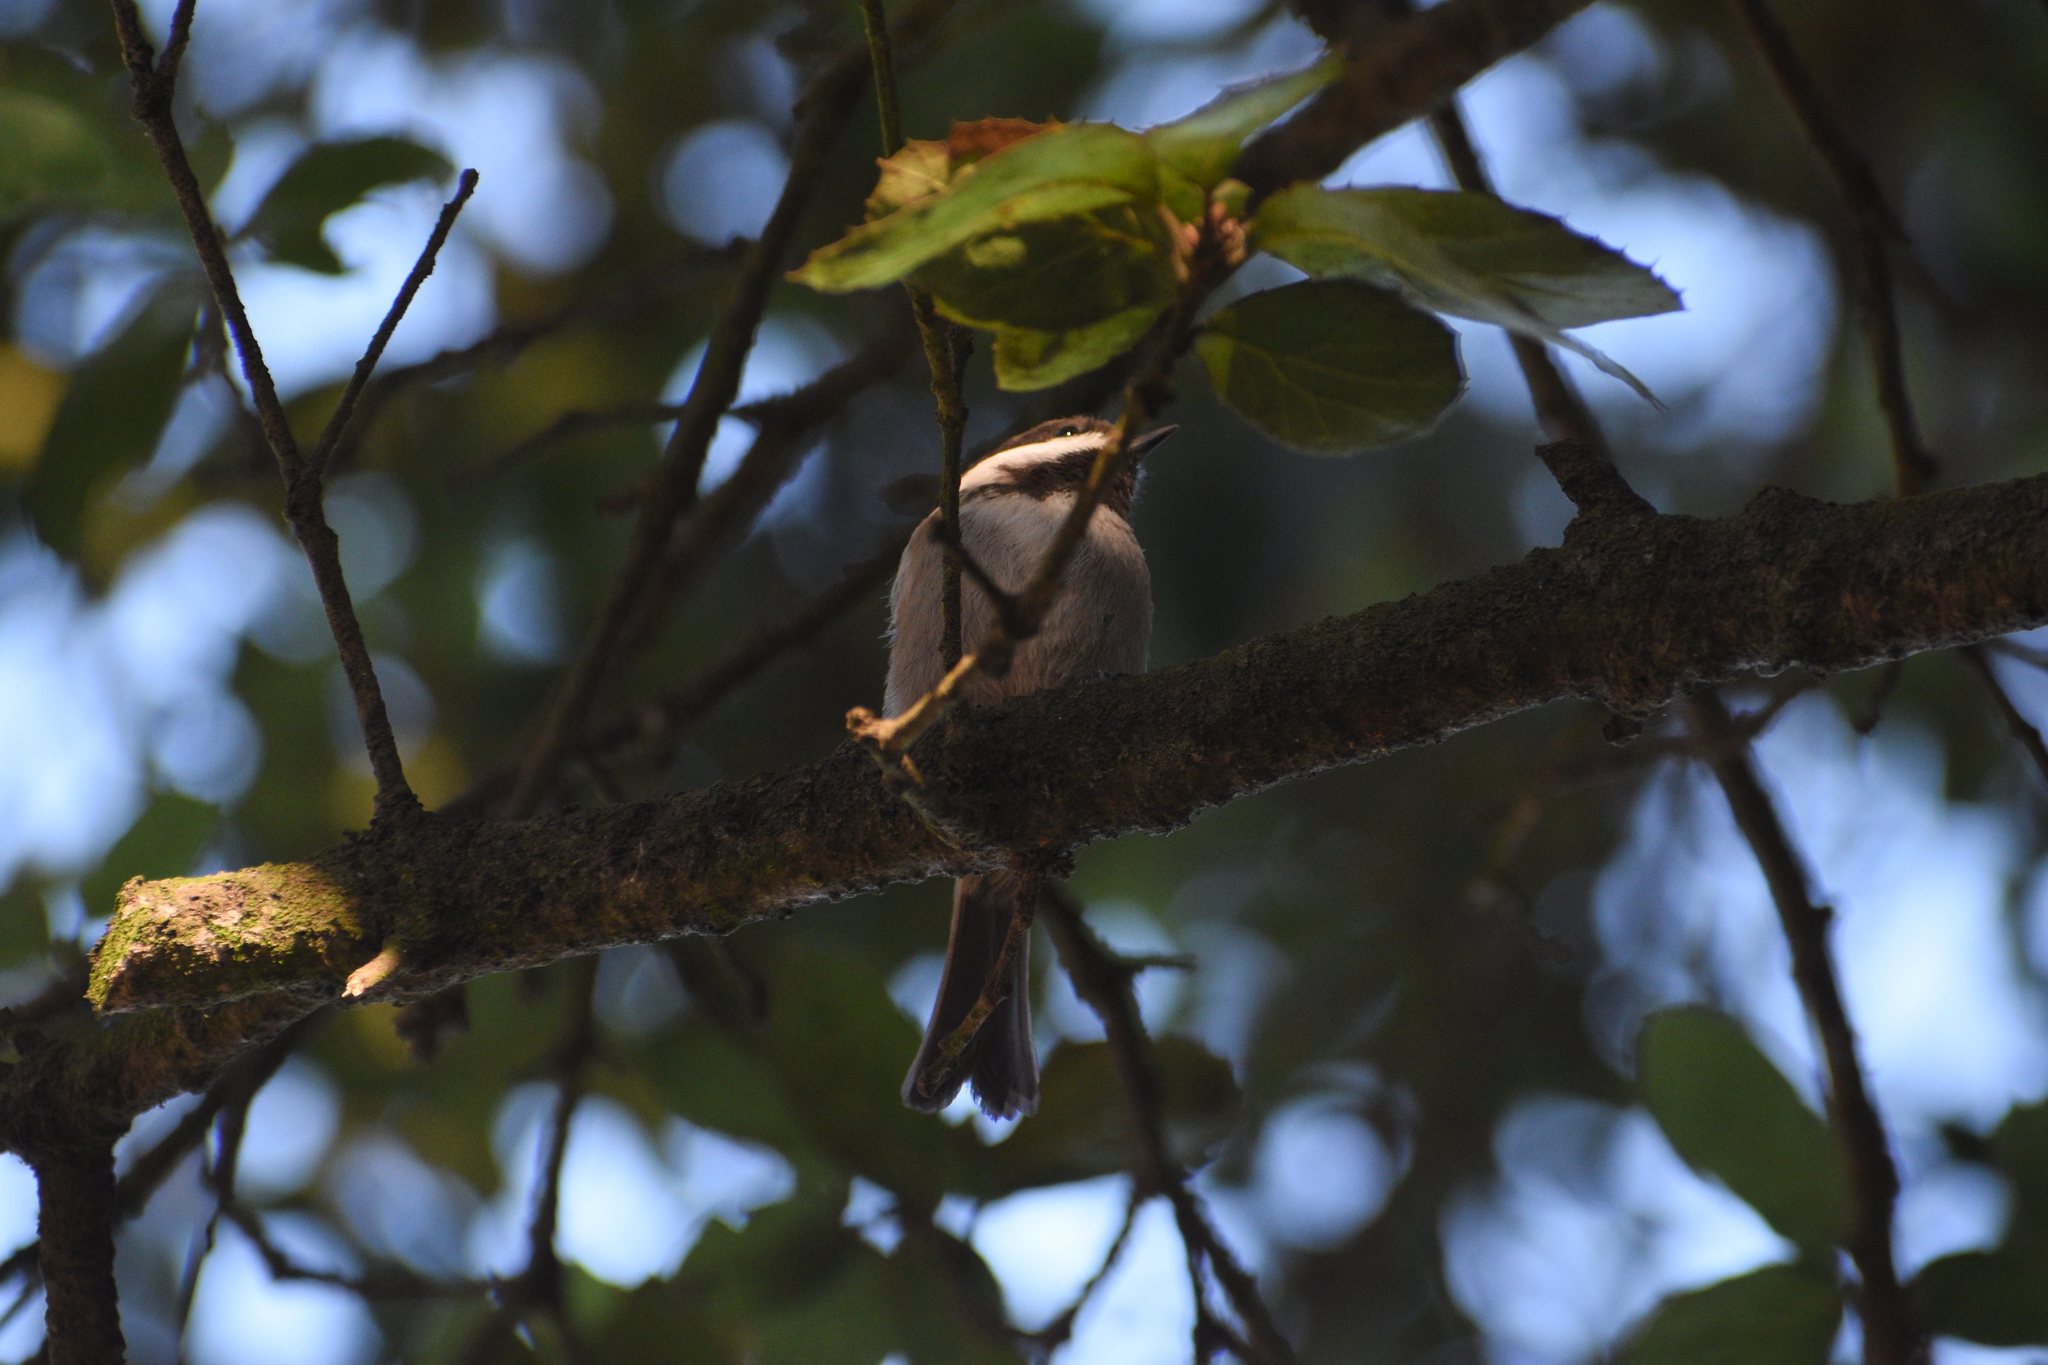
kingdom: Animalia
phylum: Chordata
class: Aves
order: Passeriformes
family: Paridae
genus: Poecile
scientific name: Poecile rufescens
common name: Chestnut-backed chickadee
